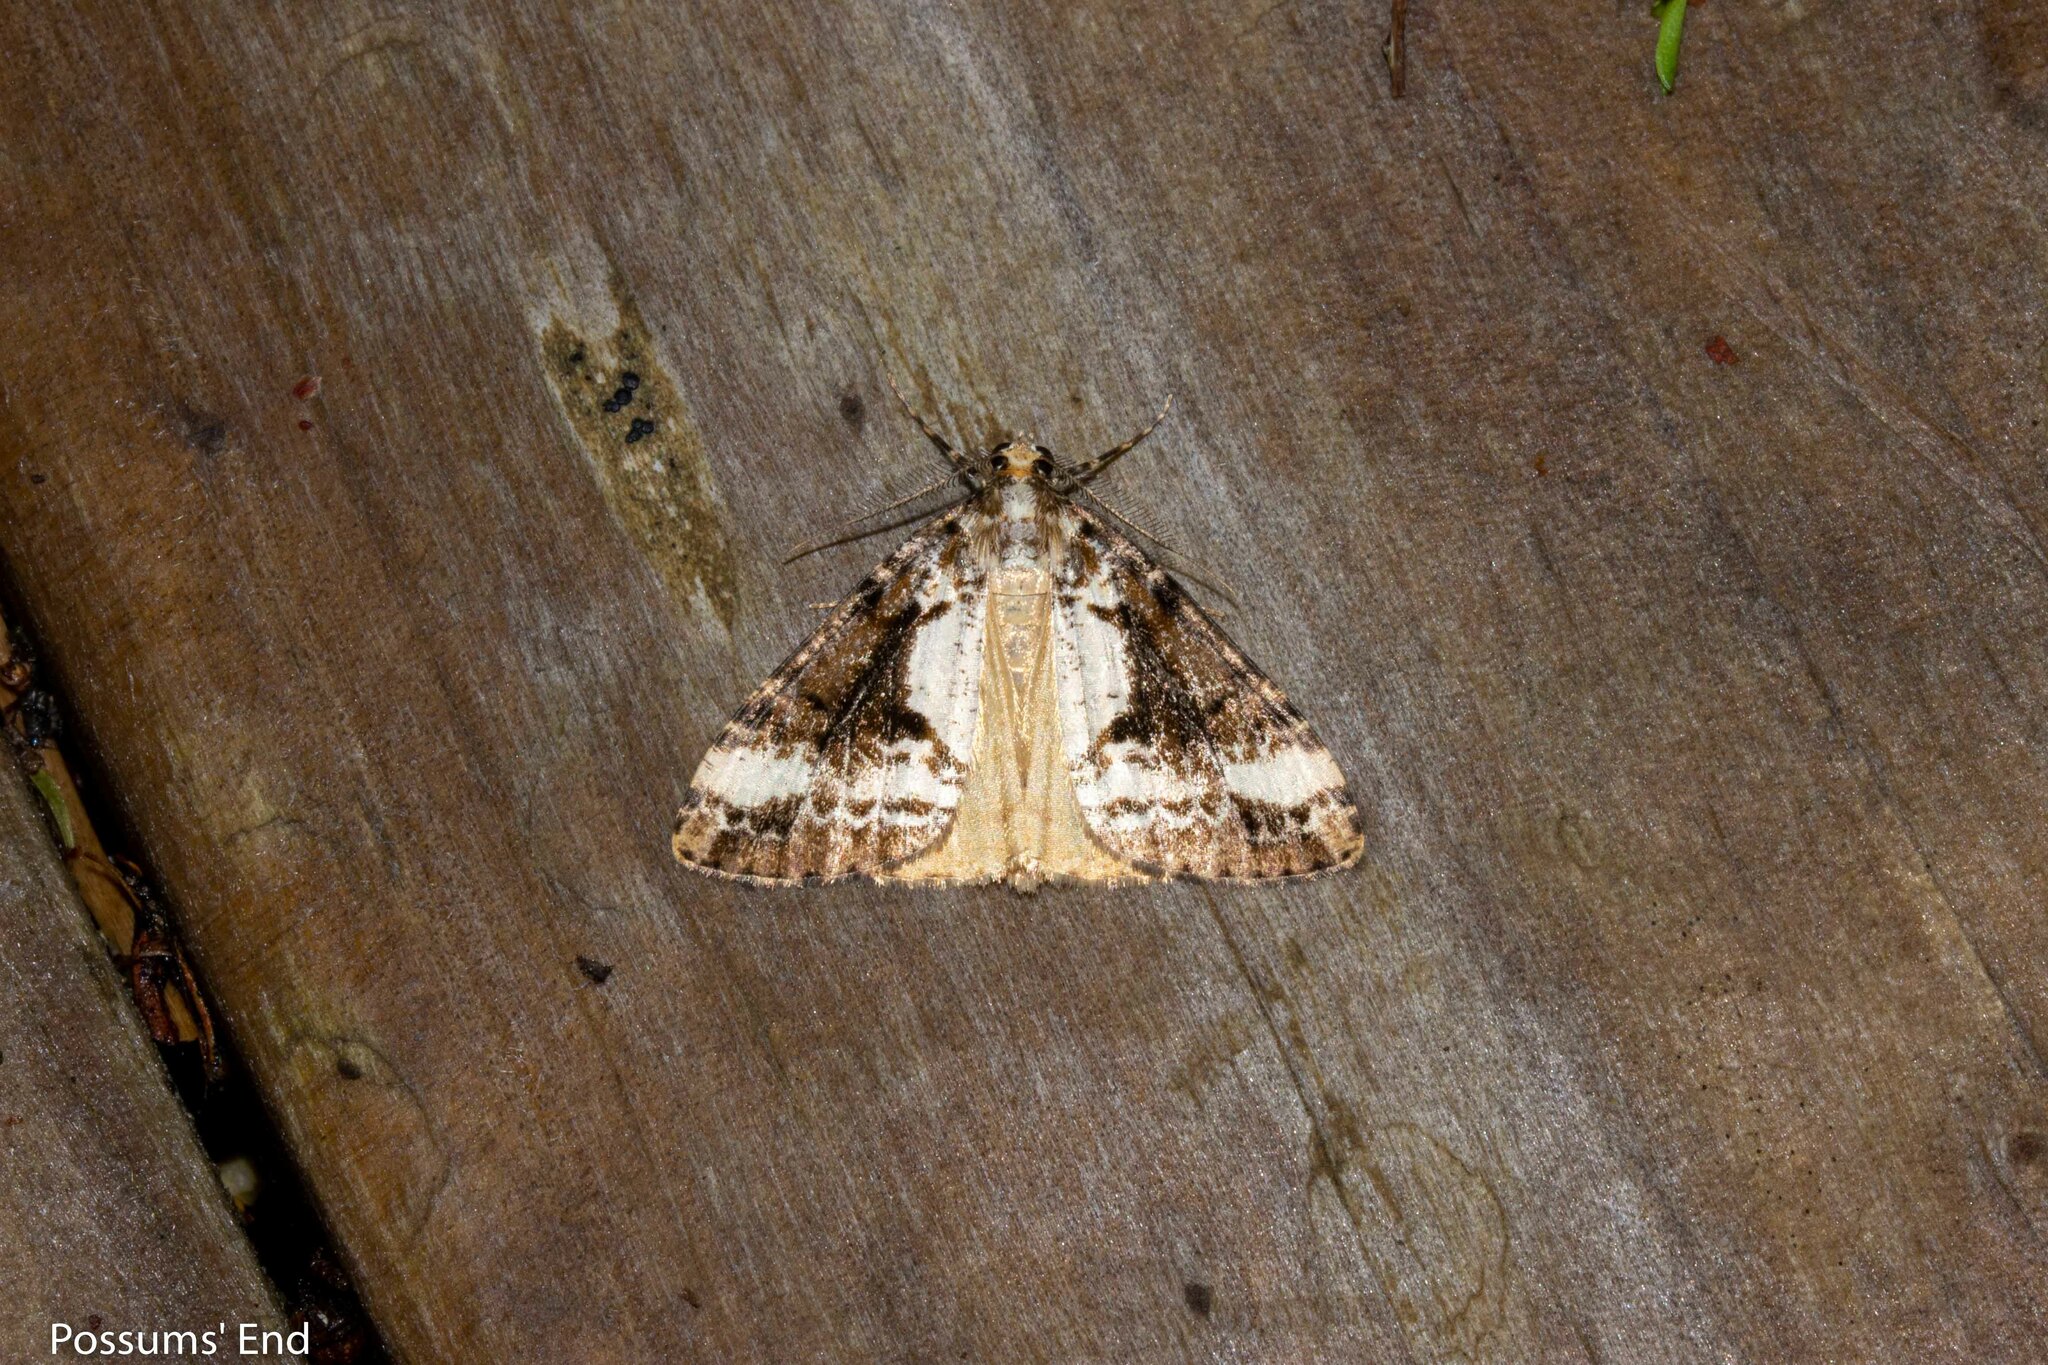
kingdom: Animalia
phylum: Arthropoda
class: Insecta
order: Lepidoptera
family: Geometridae
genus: Pseudocoremia
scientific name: Pseudocoremia leucelaea
